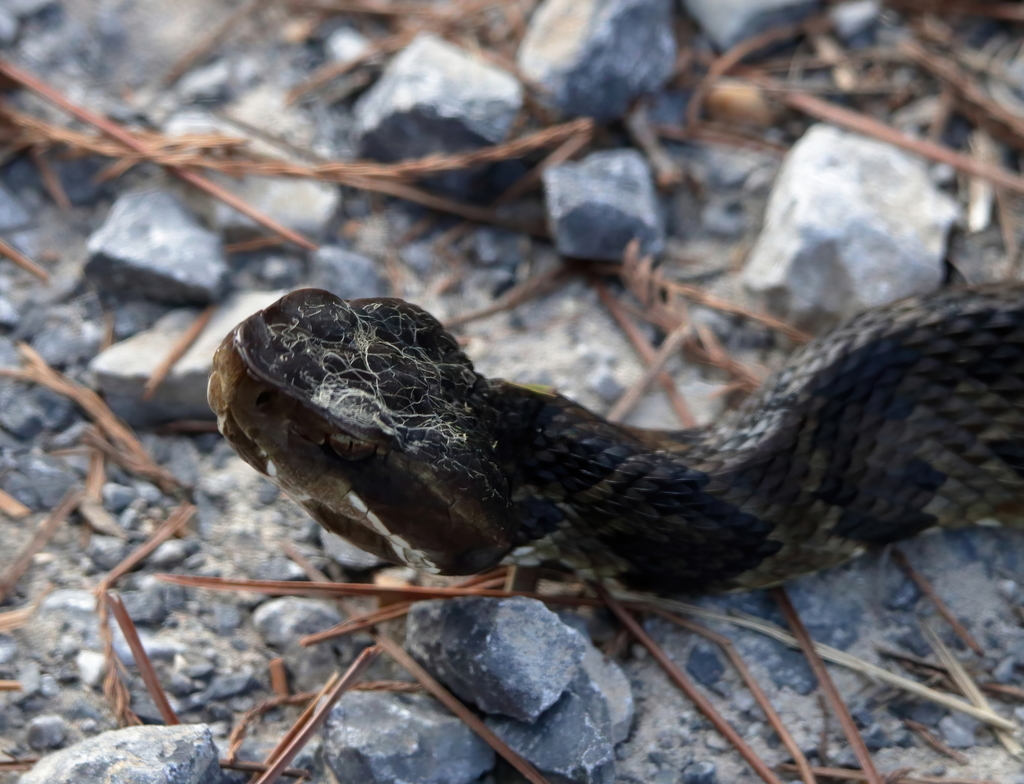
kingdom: Animalia
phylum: Chordata
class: Squamata
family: Viperidae
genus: Agkistrodon
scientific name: Agkistrodon piscivorus
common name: Cottonmouth
